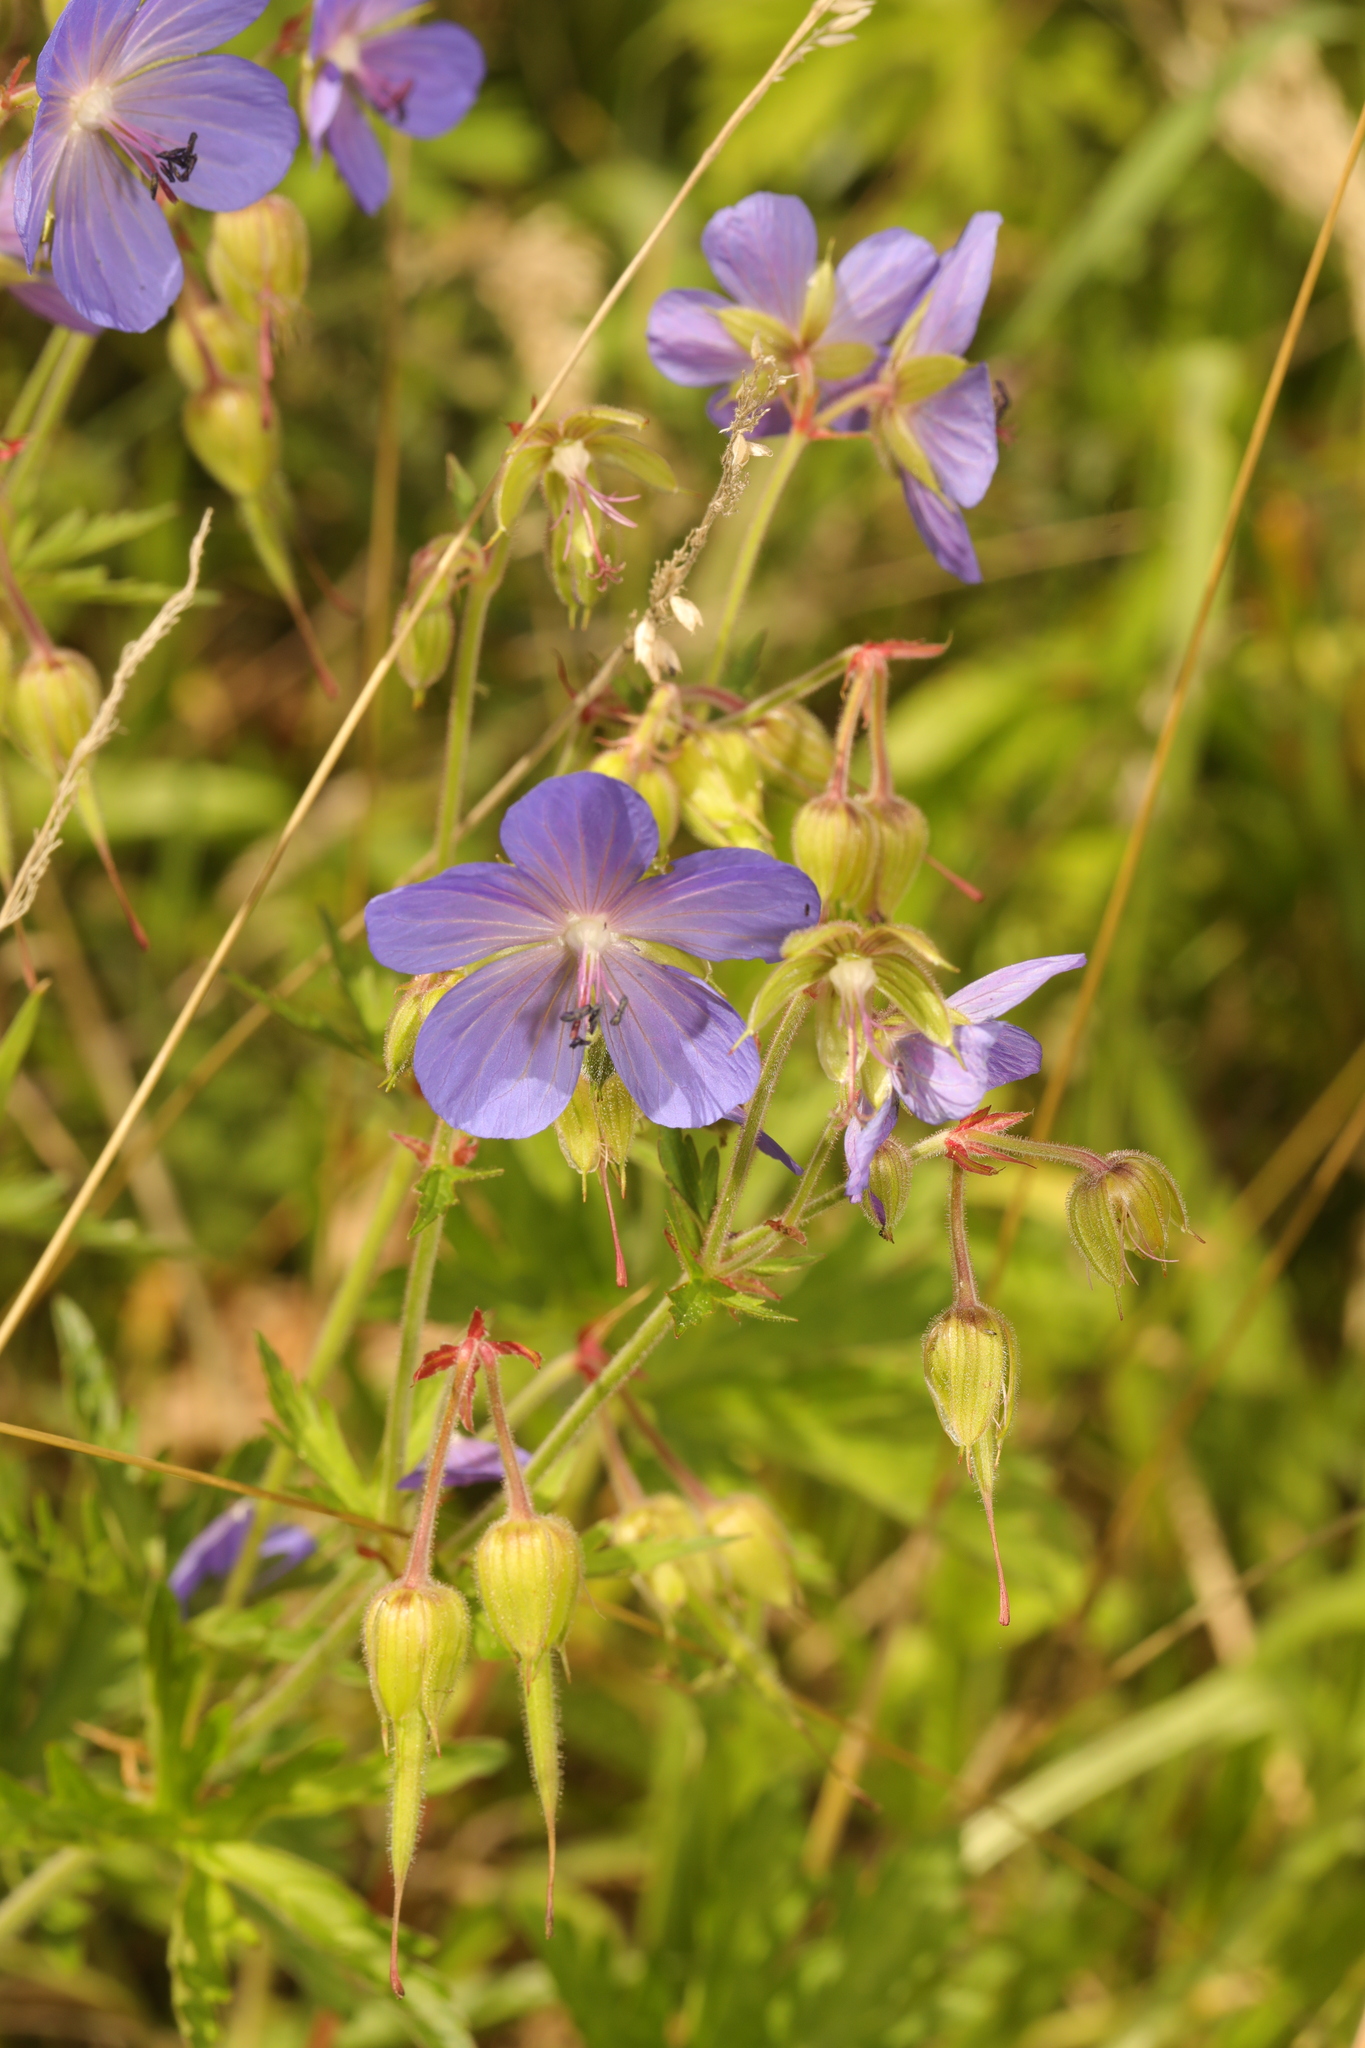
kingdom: Plantae
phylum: Tracheophyta
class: Magnoliopsida
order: Geraniales
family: Geraniaceae
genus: Geranium
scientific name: Geranium pratense
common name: Meadow crane's-bill
